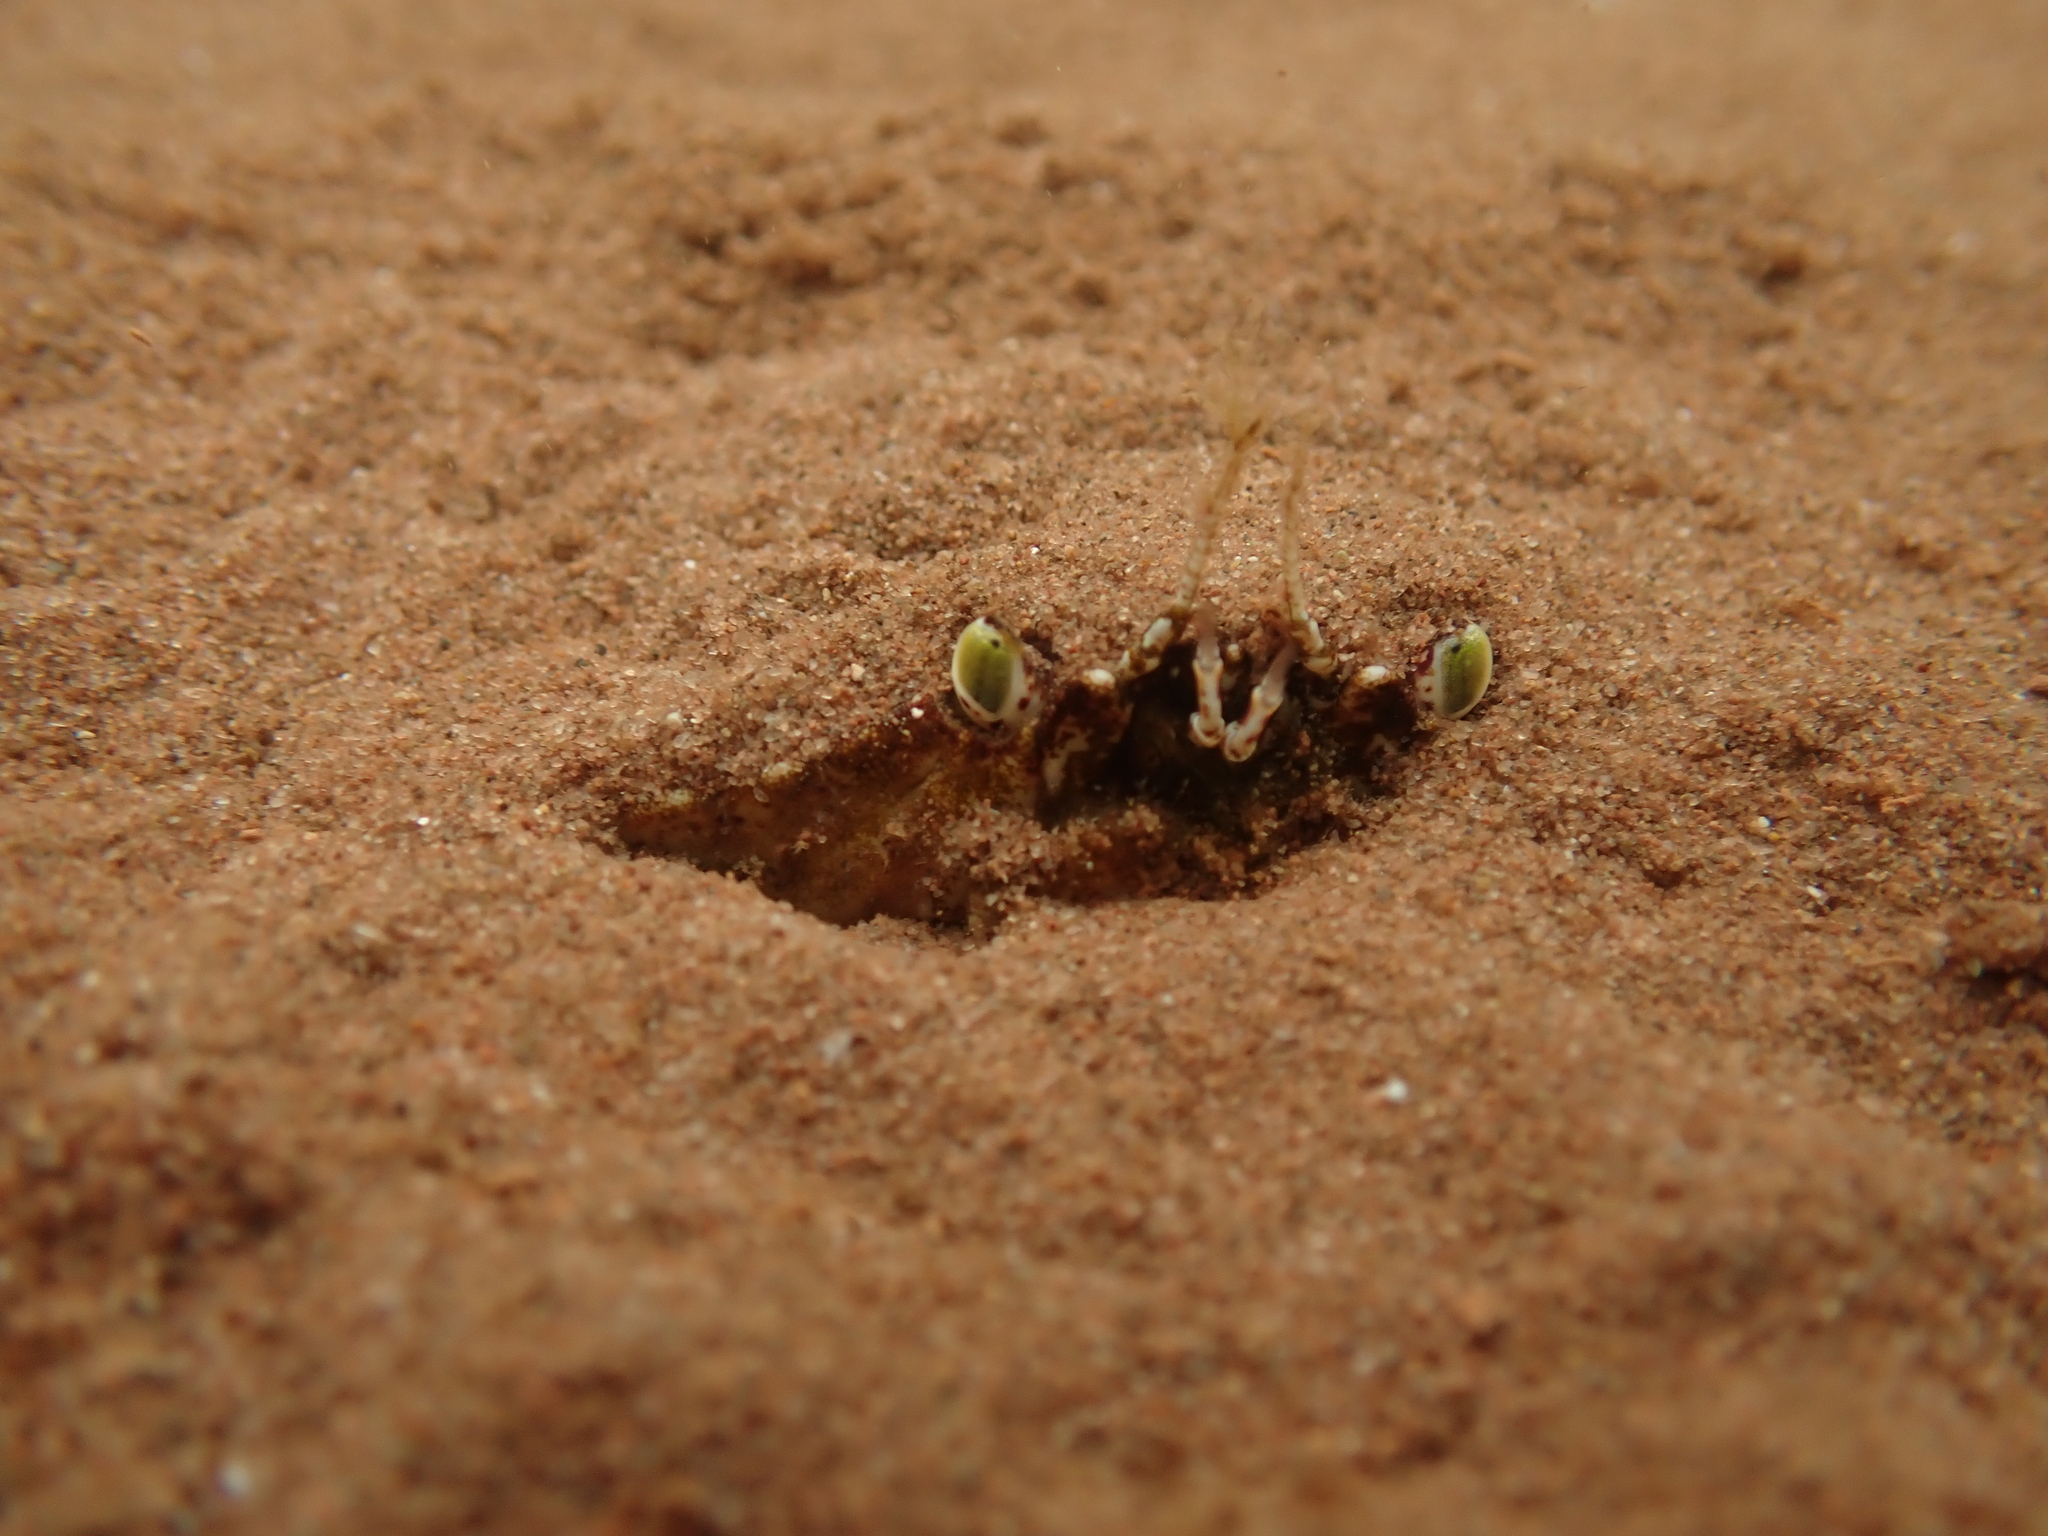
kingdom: Animalia
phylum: Arthropoda
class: Malacostraca
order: Decapoda
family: Cancridae
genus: Cancer
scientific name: Cancer irroratus
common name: Atlantic rock crab
